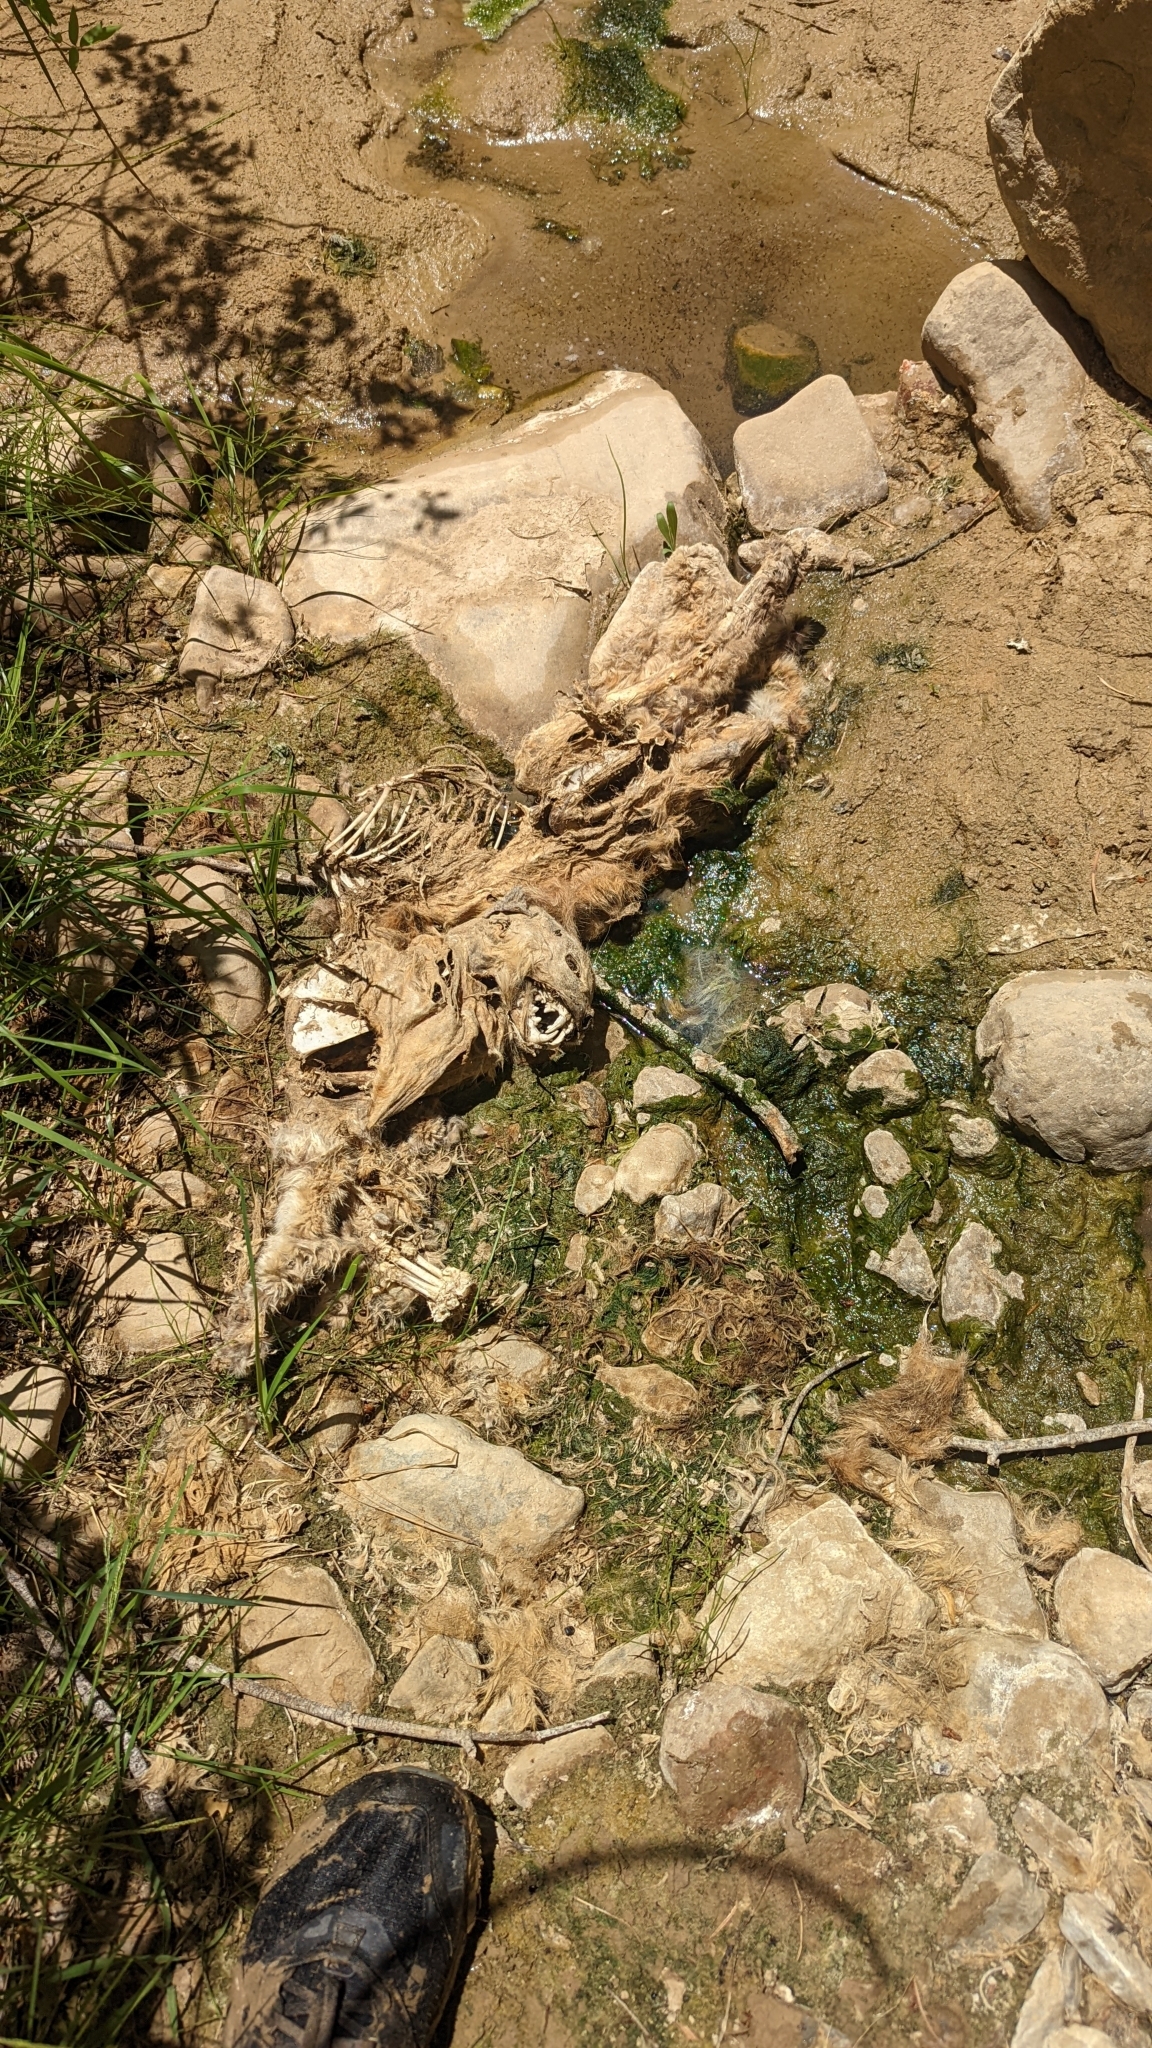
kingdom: Animalia
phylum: Chordata
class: Mammalia
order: Carnivora
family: Felidae
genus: Puma
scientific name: Puma concolor
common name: Puma
